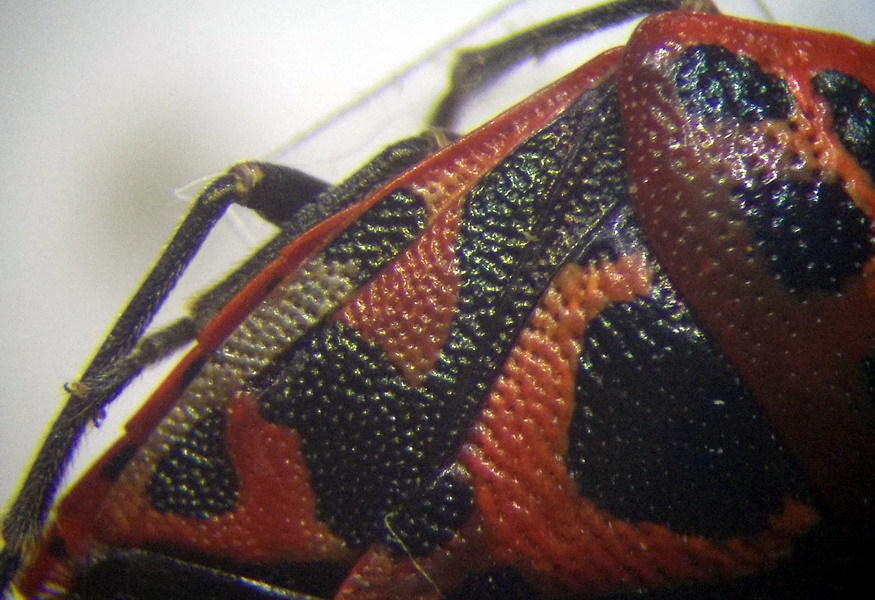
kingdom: Animalia
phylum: Arthropoda
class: Insecta
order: Hemiptera
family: Pentatomidae
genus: Eurydema
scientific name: Eurydema ornata
